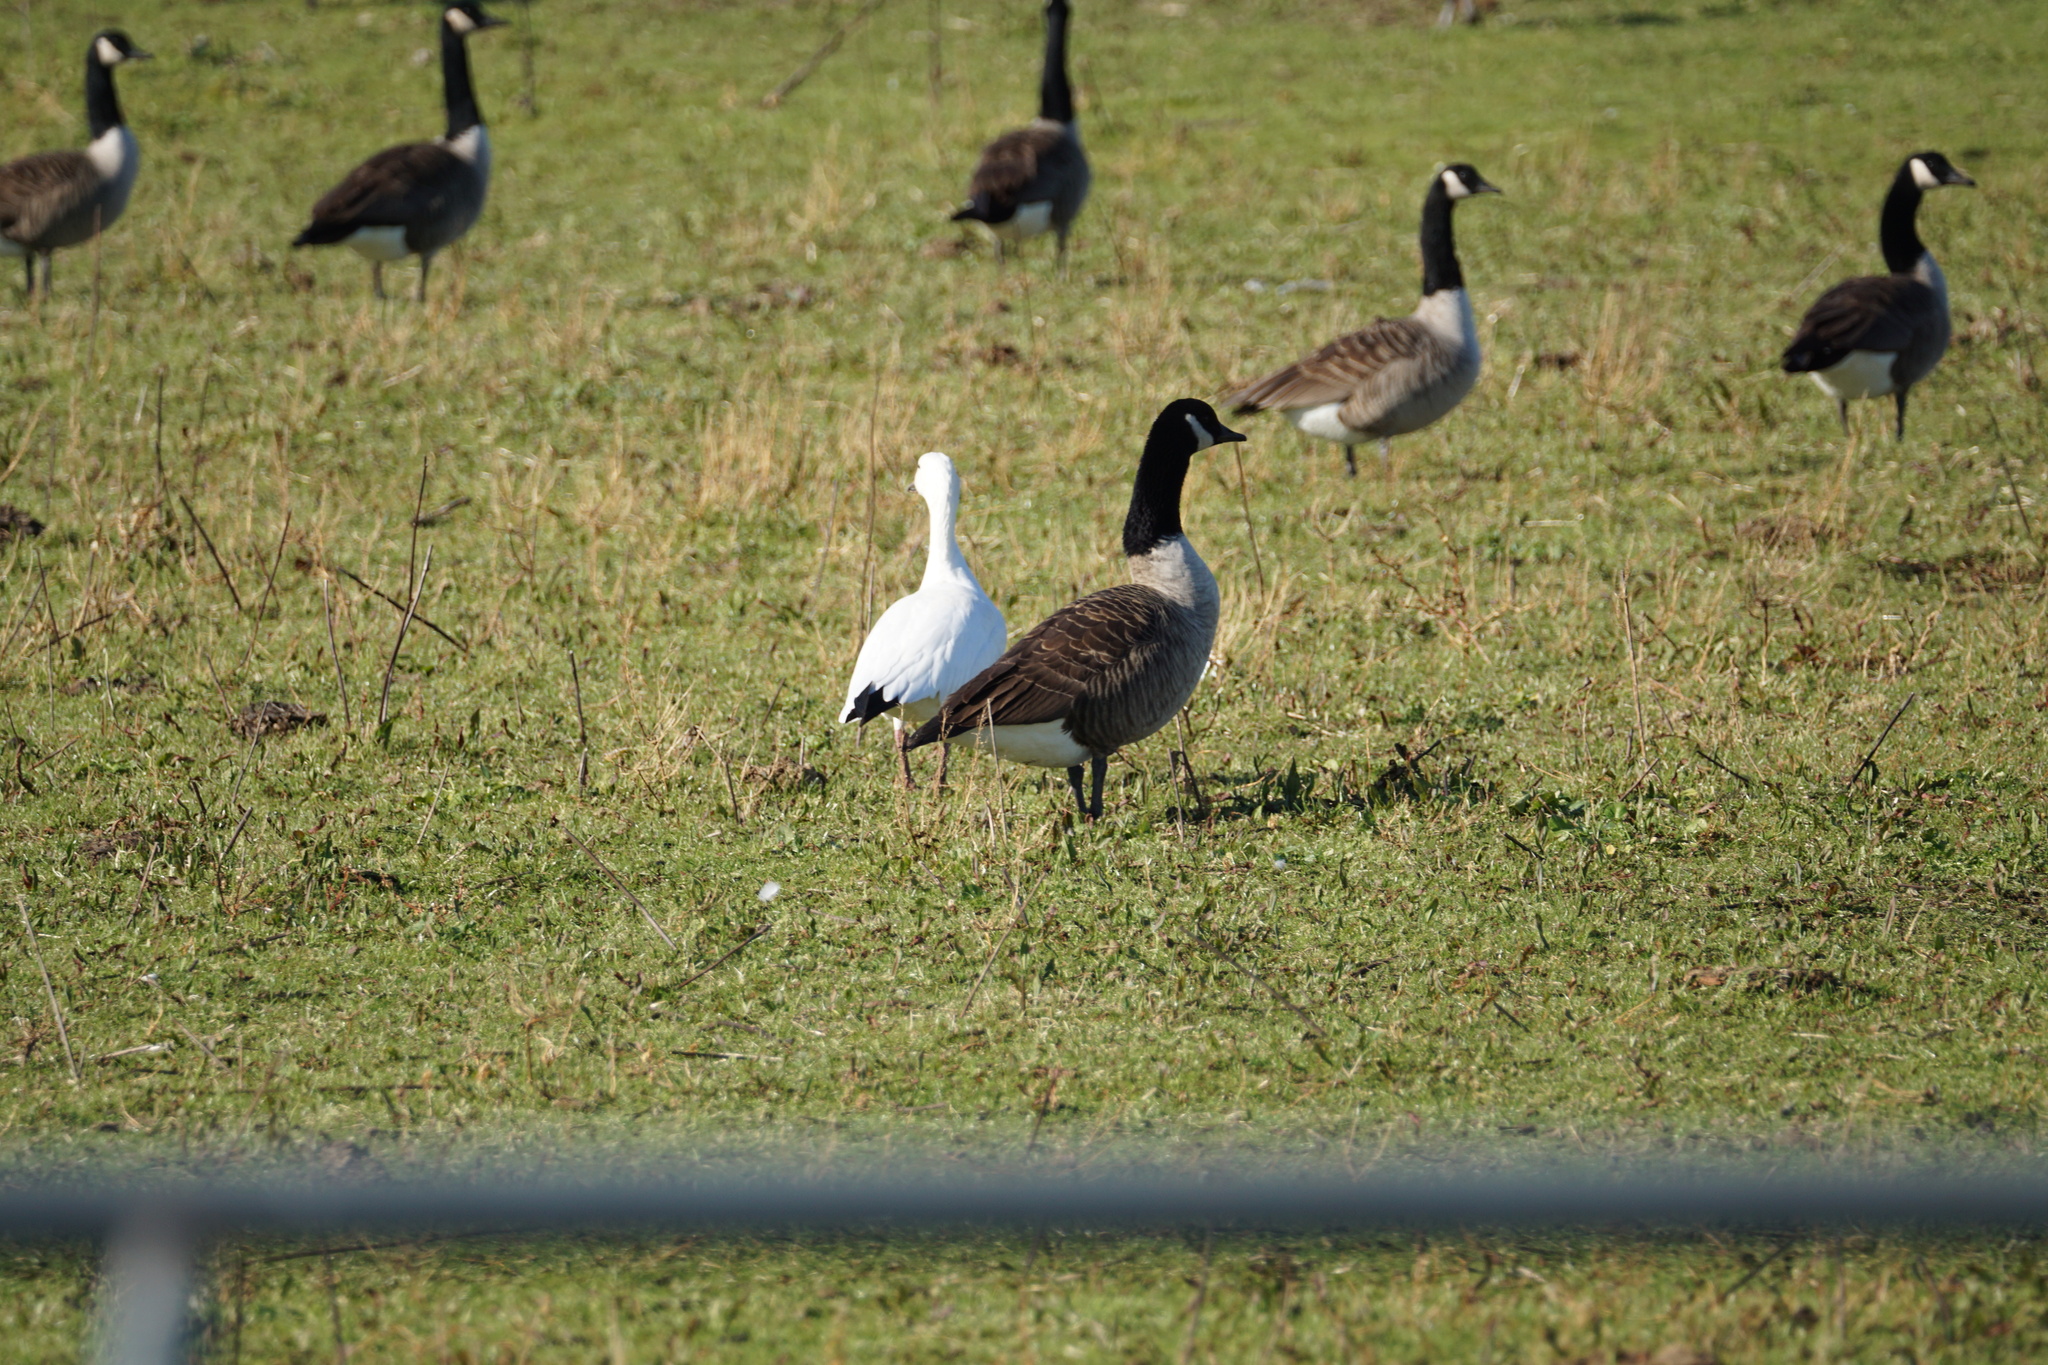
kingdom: Animalia
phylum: Chordata
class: Aves
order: Anseriformes
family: Anatidae
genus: Anser
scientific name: Anser caerulescens
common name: Snow goose
